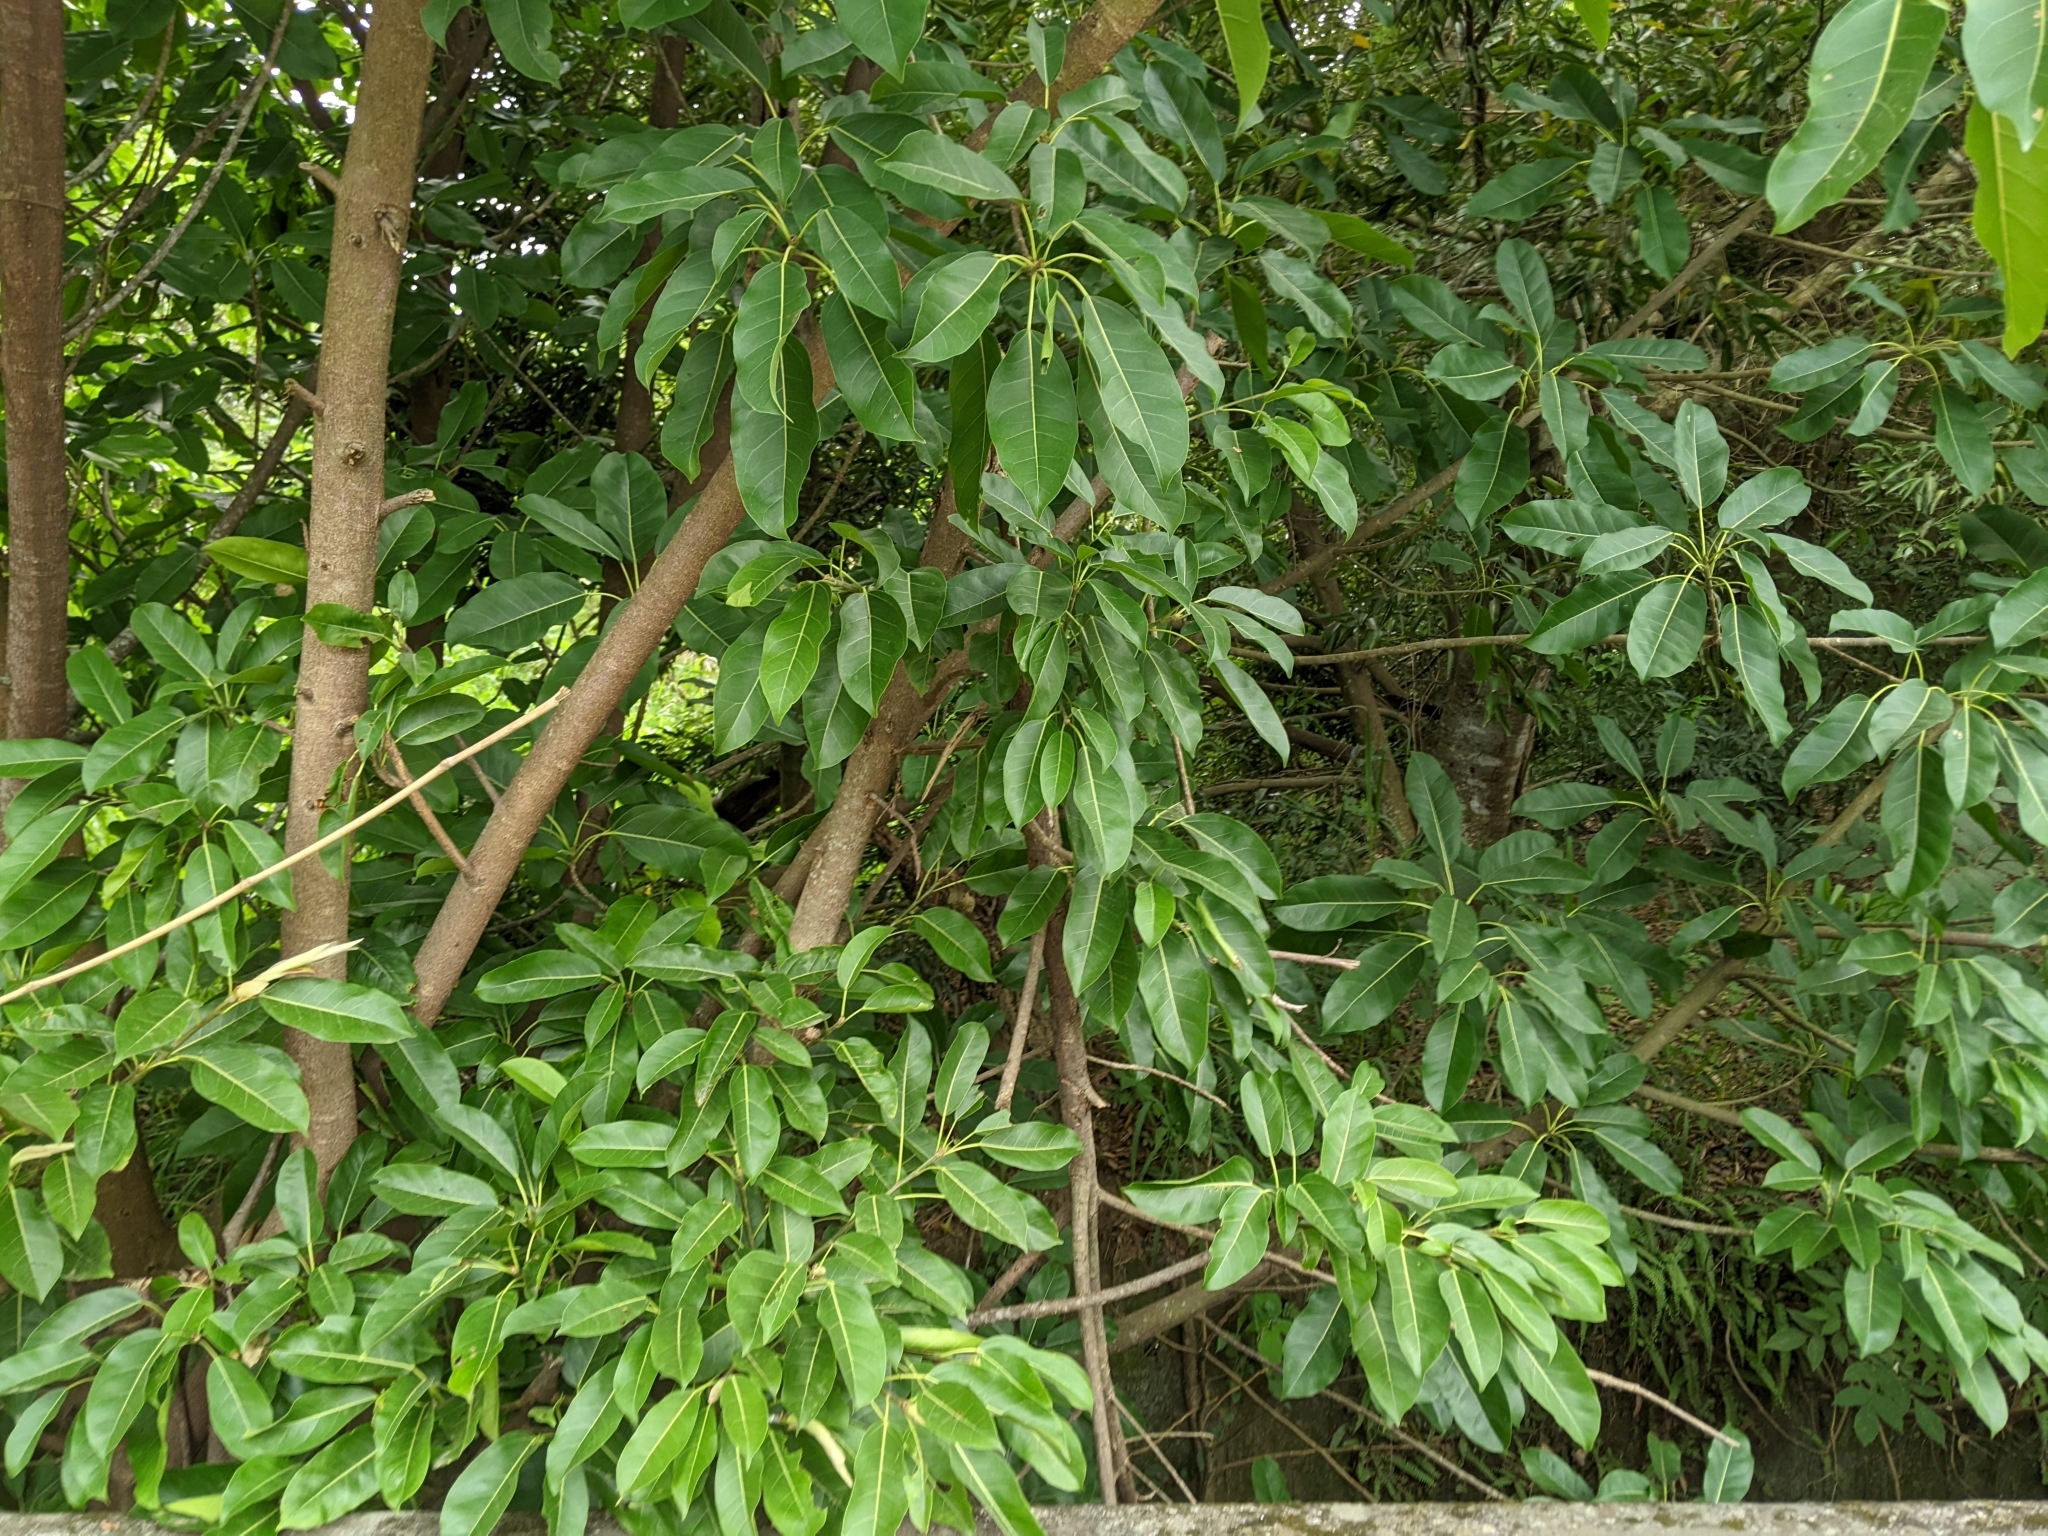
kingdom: Plantae
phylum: Tracheophyta
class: Magnoliopsida
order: Rosales
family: Moraceae
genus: Ficus
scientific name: Ficus subpisocarpa
